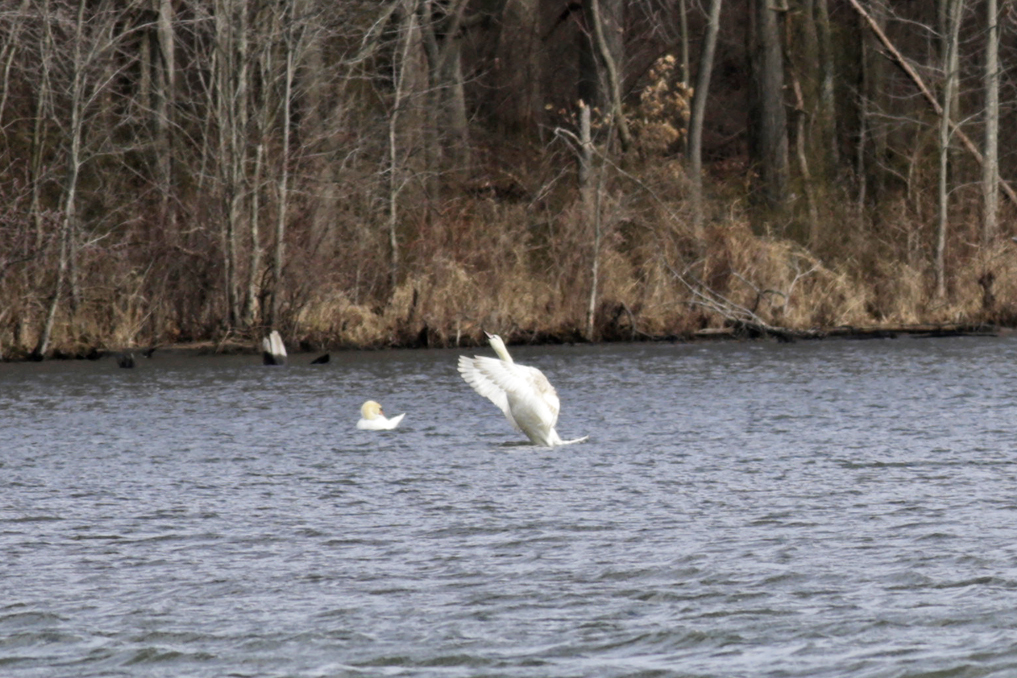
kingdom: Animalia
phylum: Chordata
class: Aves
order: Anseriformes
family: Anatidae
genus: Cygnus
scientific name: Cygnus olor
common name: Mute swan
